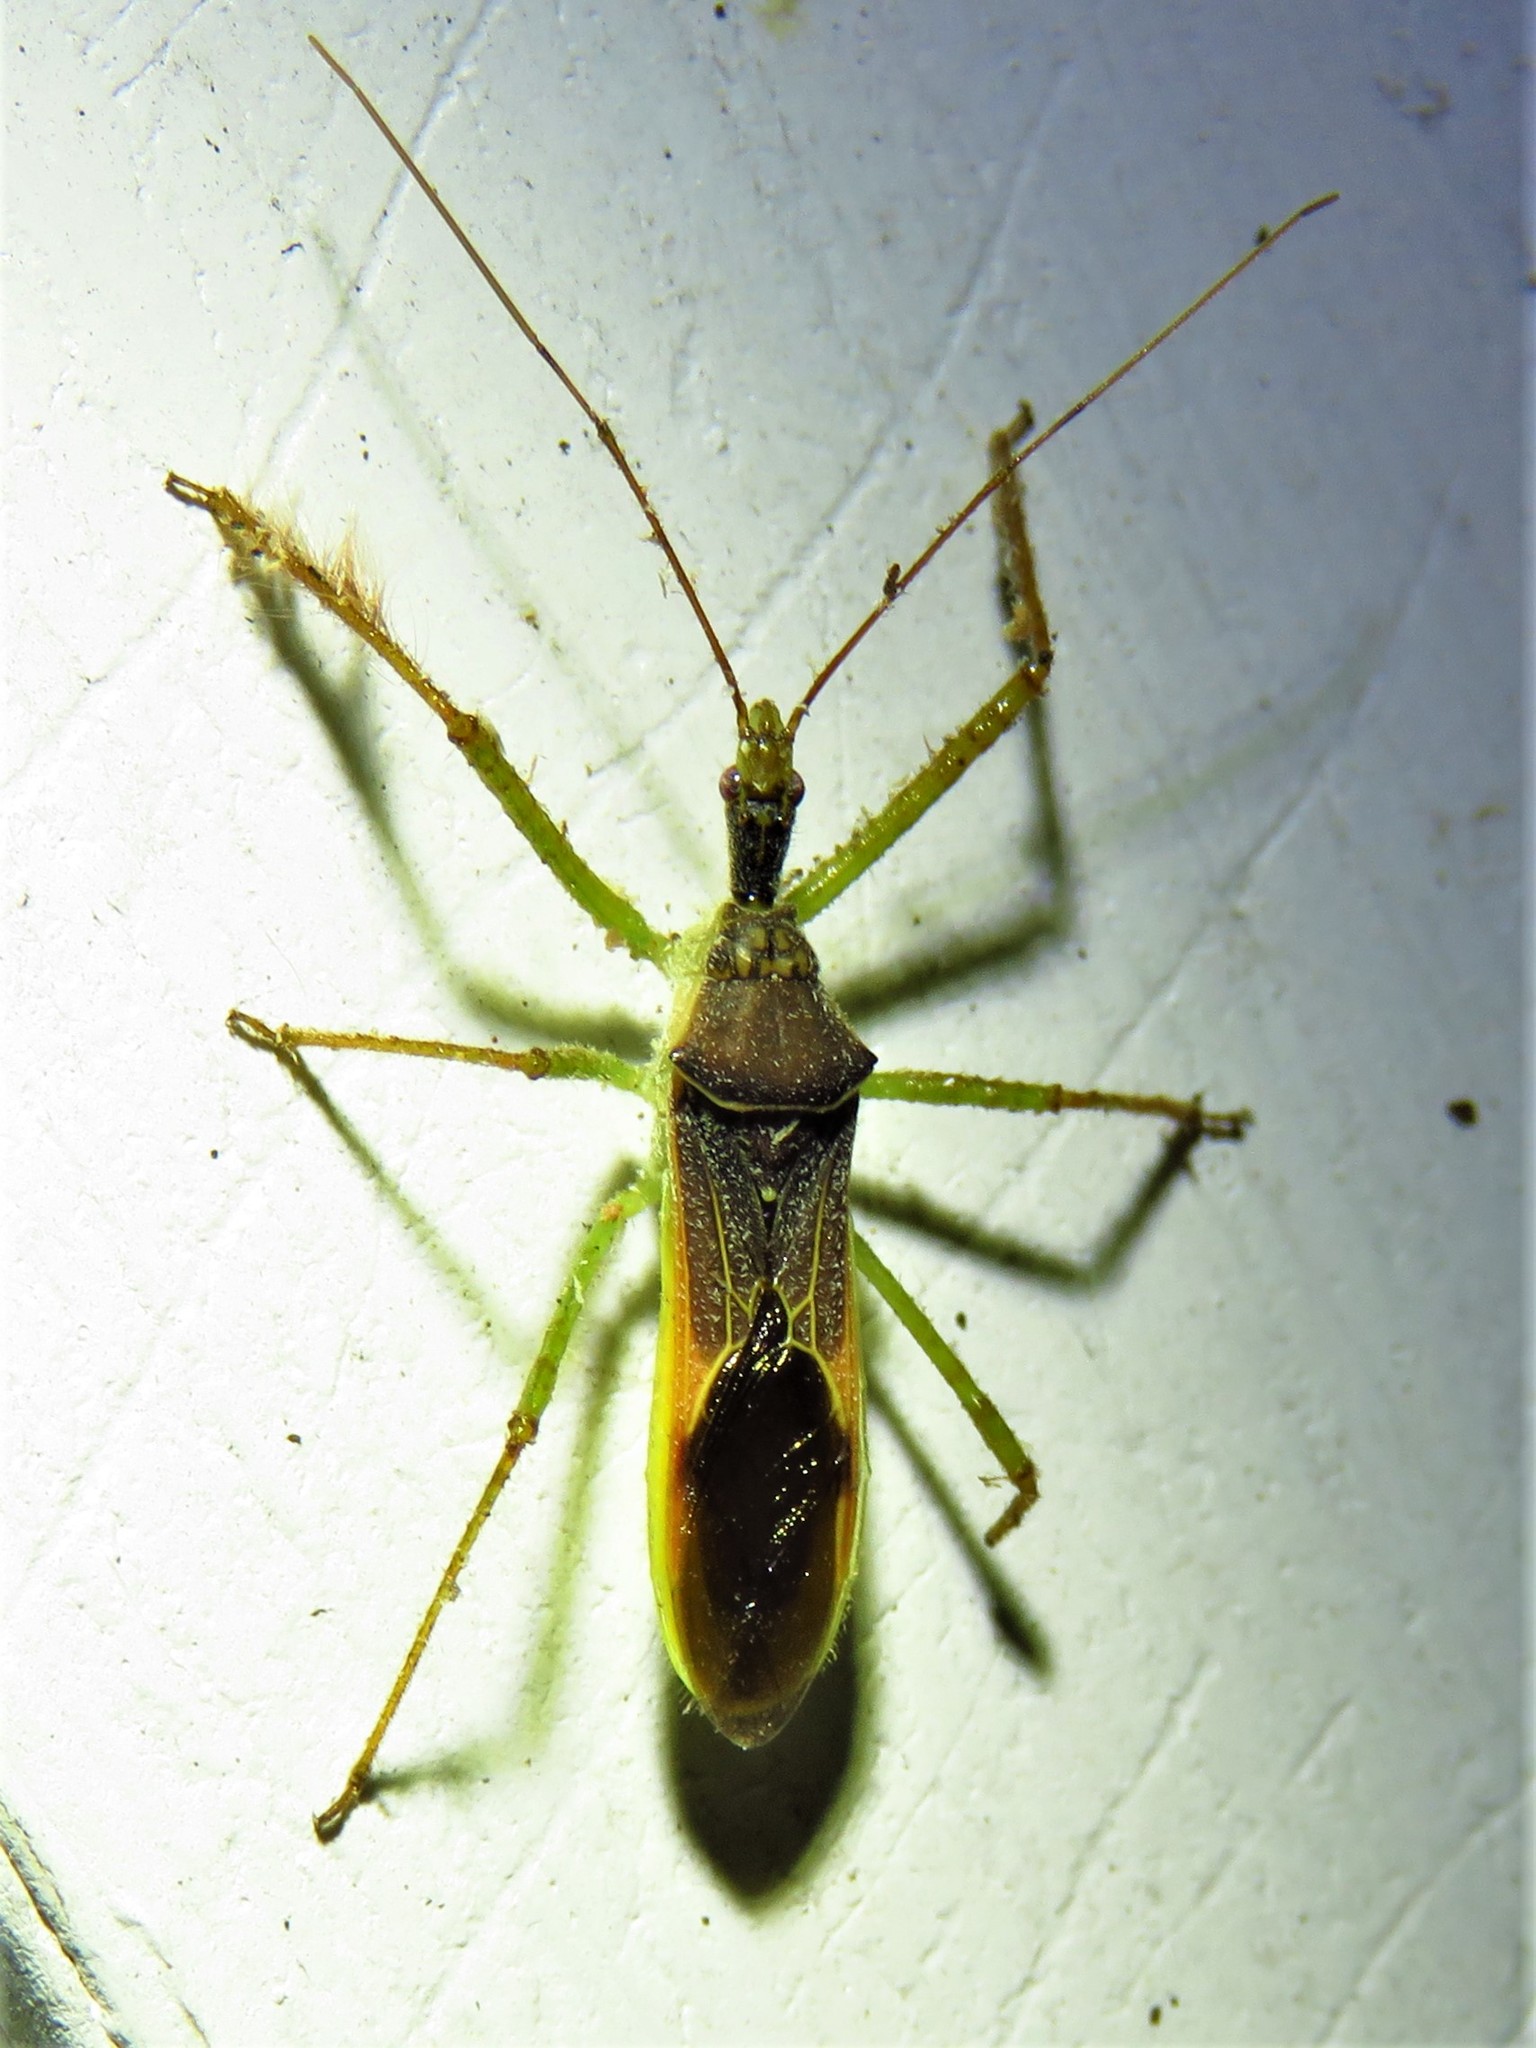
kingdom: Animalia
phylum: Arthropoda
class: Insecta
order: Hemiptera
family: Reduviidae
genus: Zelus
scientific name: Zelus renardii
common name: Assassin bug
